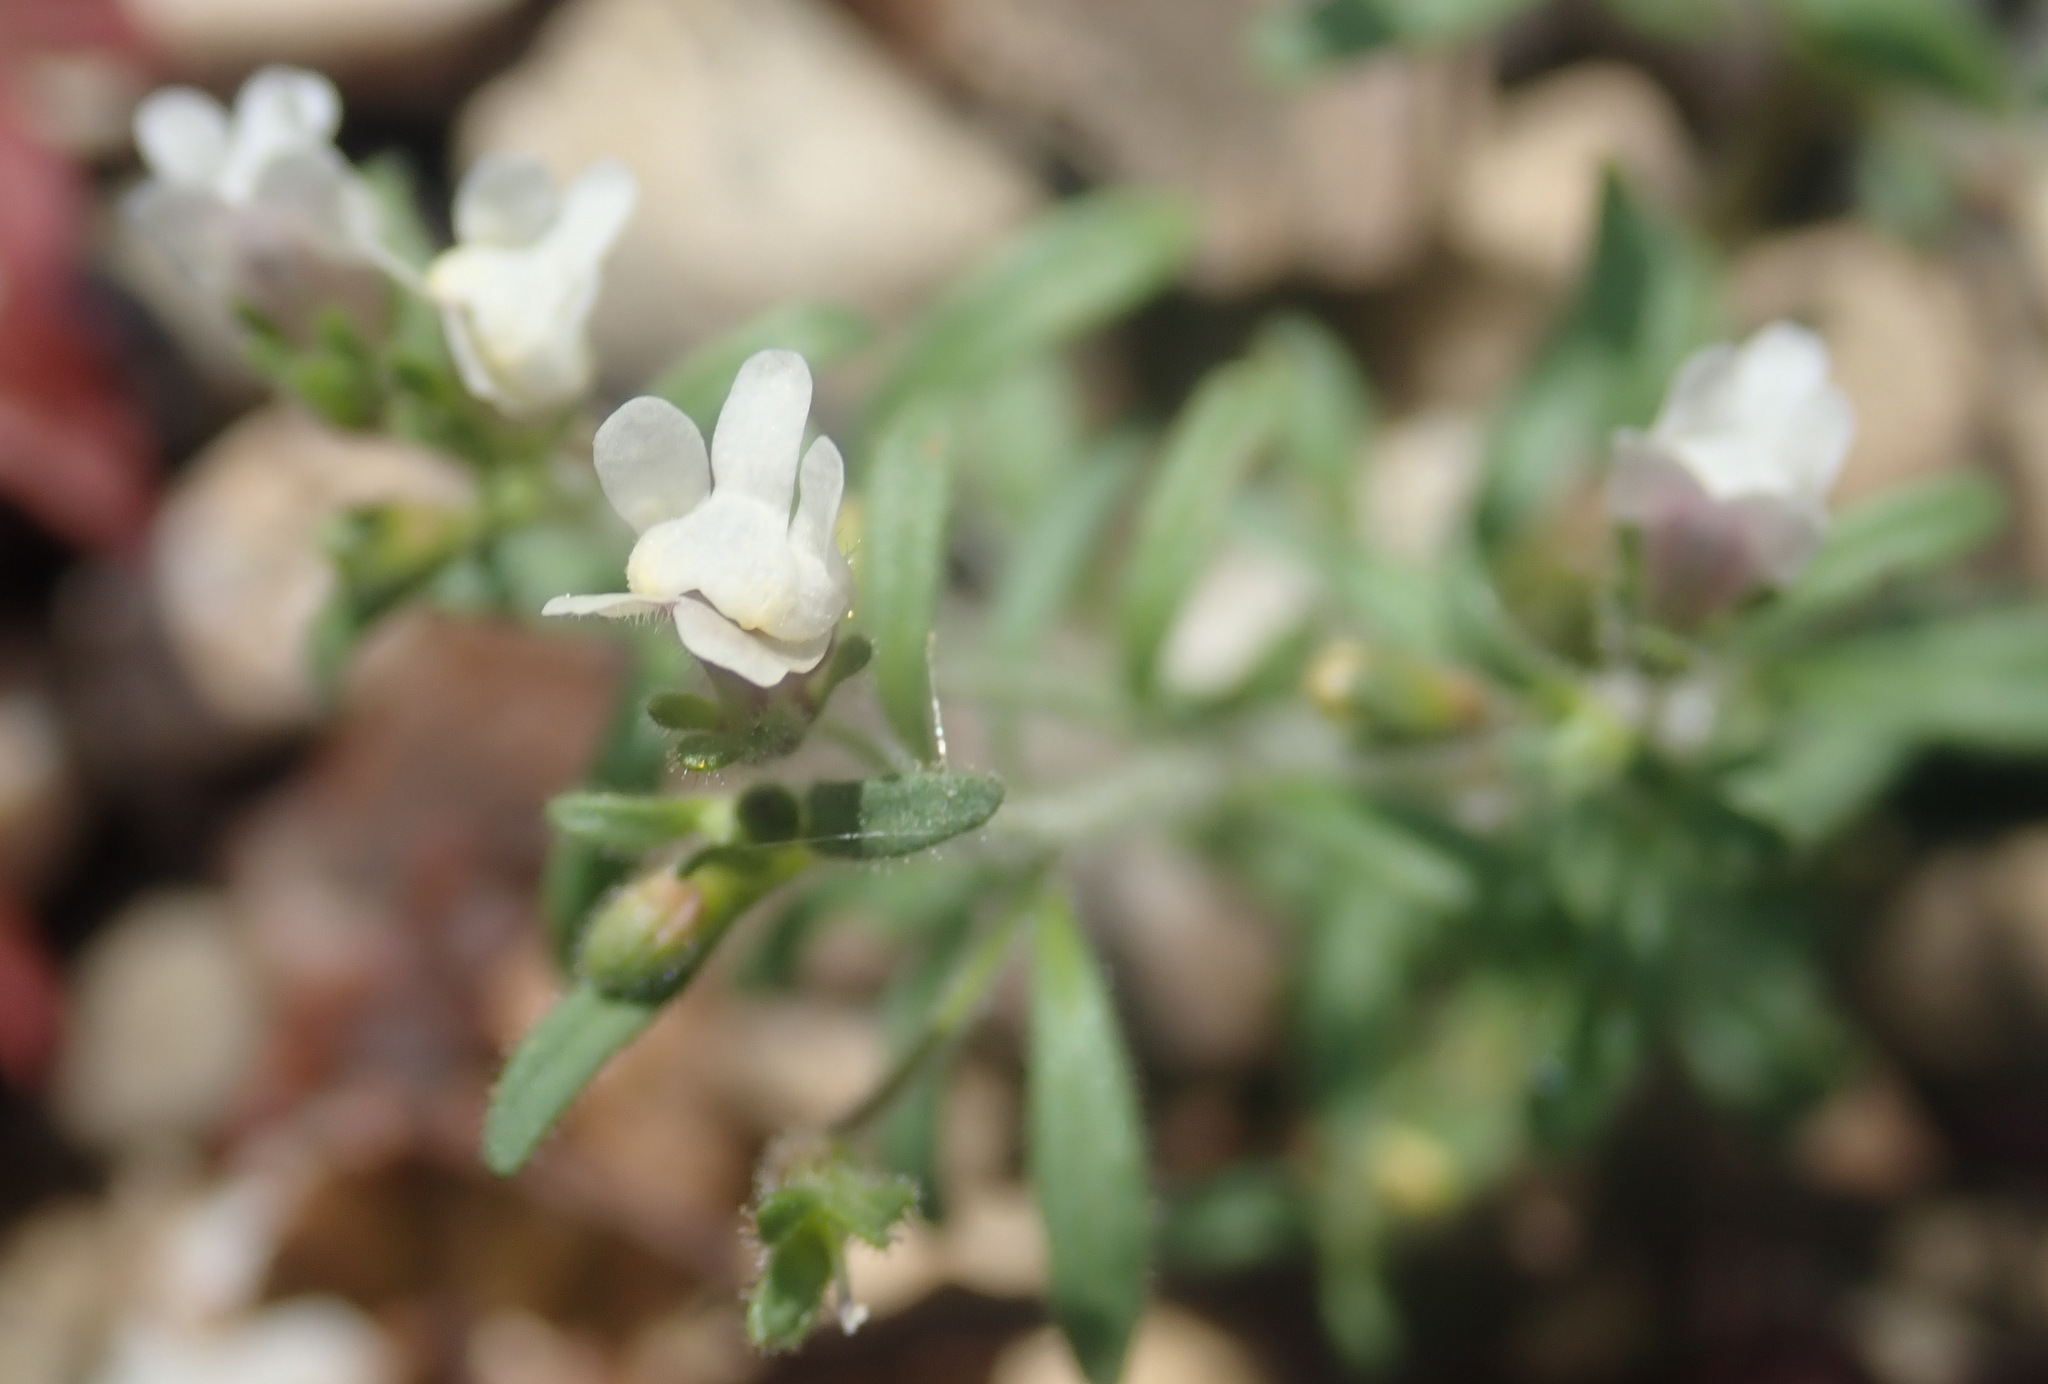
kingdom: Plantae
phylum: Tracheophyta
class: Magnoliopsida
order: Lamiales
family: Plantaginaceae
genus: Chaenorhinum
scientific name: Chaenorhinum minus
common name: Dwarf snapdragon
